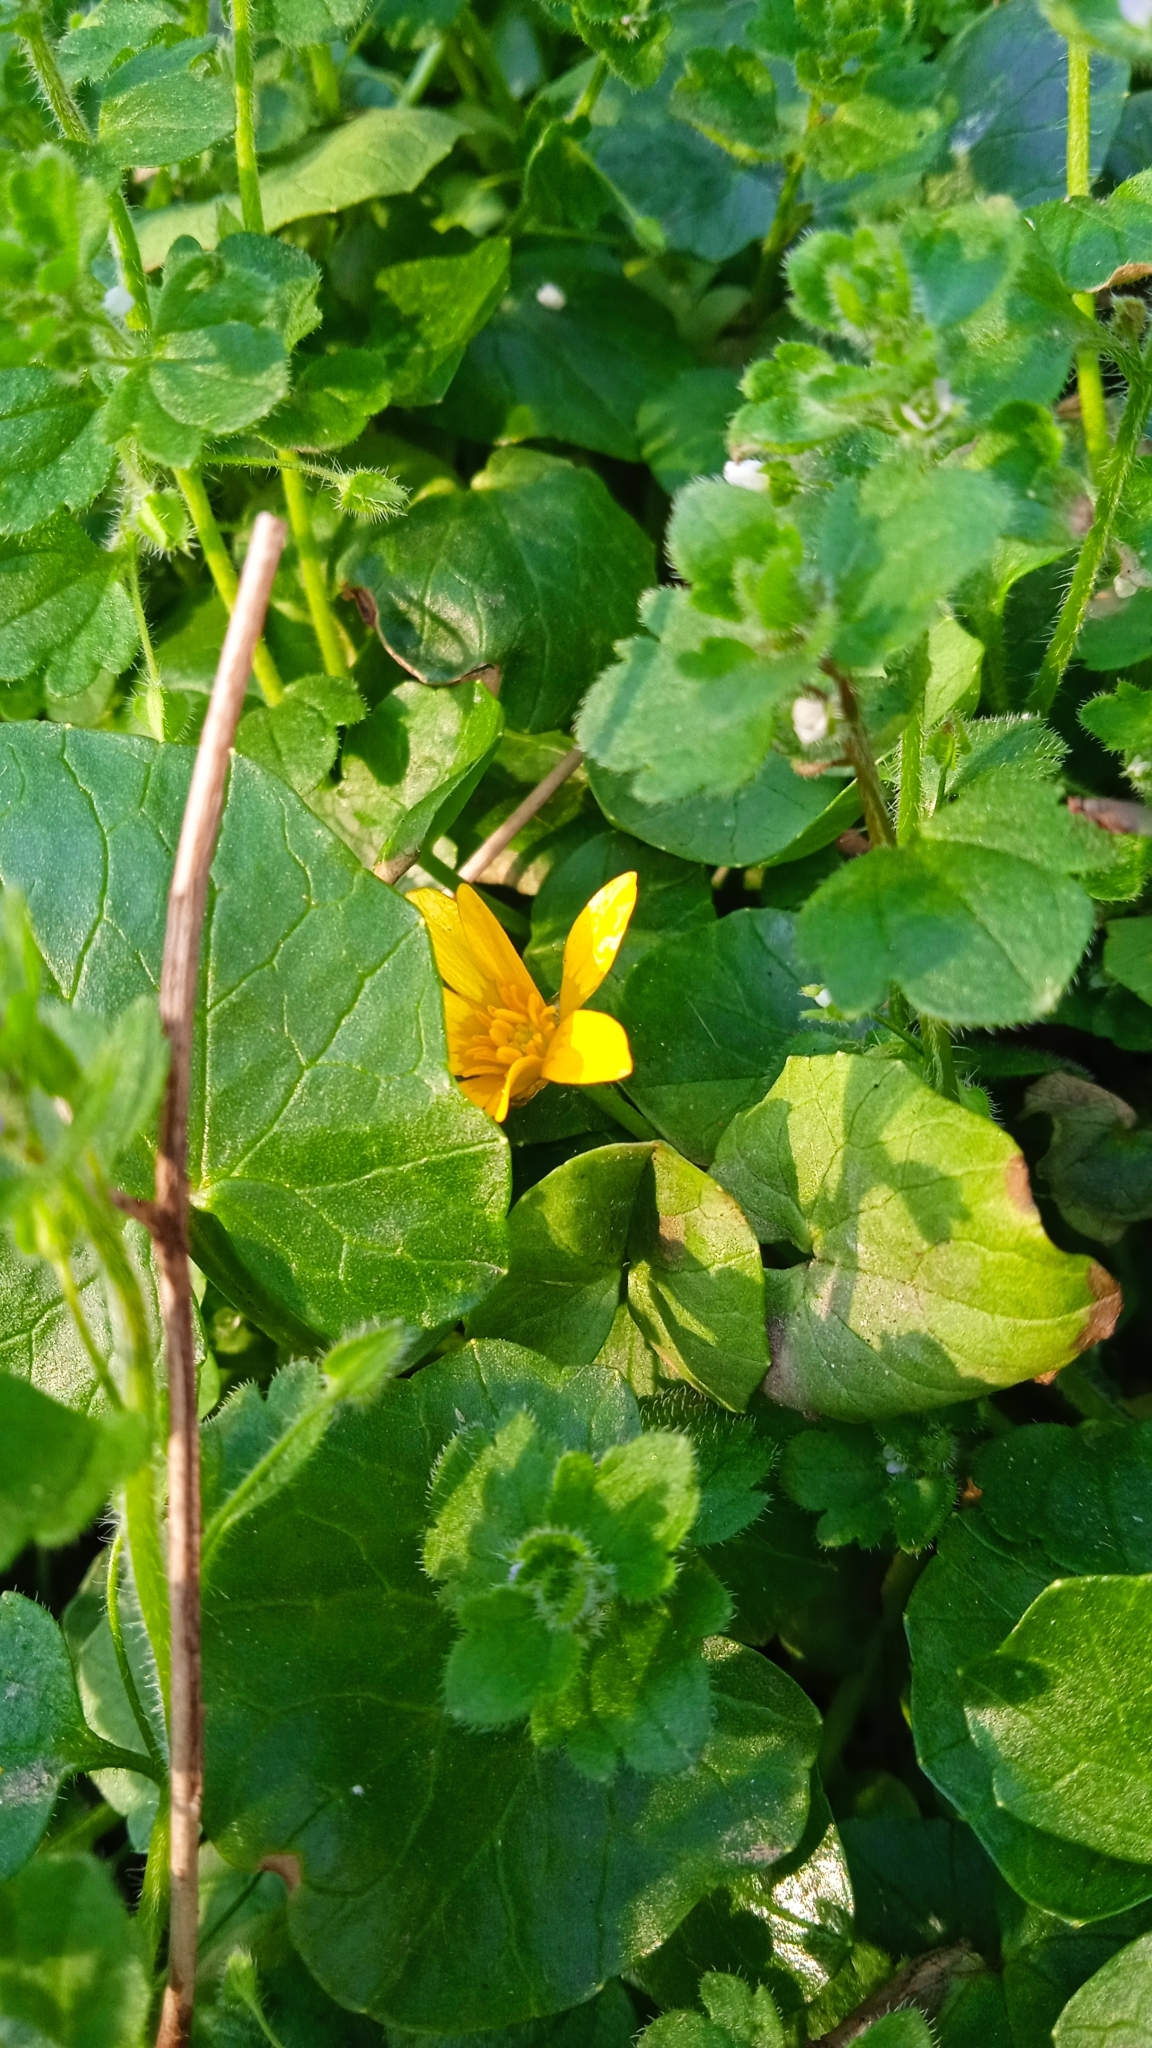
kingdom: Plantae
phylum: Tracheophyta
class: Magnoliopsida
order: Ranunculales
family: Ranunculaceae
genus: Ficaria
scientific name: Ficaria verna
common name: Lesser celandine
